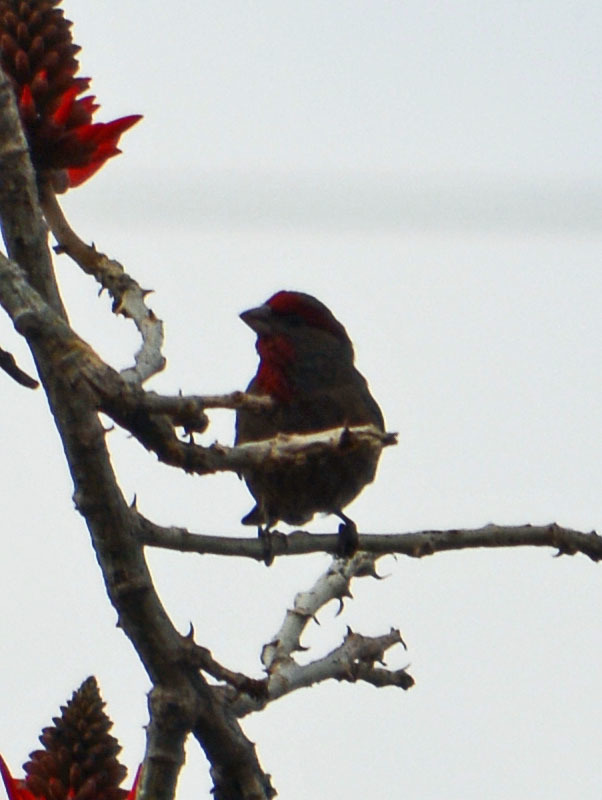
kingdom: Animalia
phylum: Chordata
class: Aves
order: Passeriformes
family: Fringillidae
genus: Haemorhous
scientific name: Haemorhous mexicanus
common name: House finch
